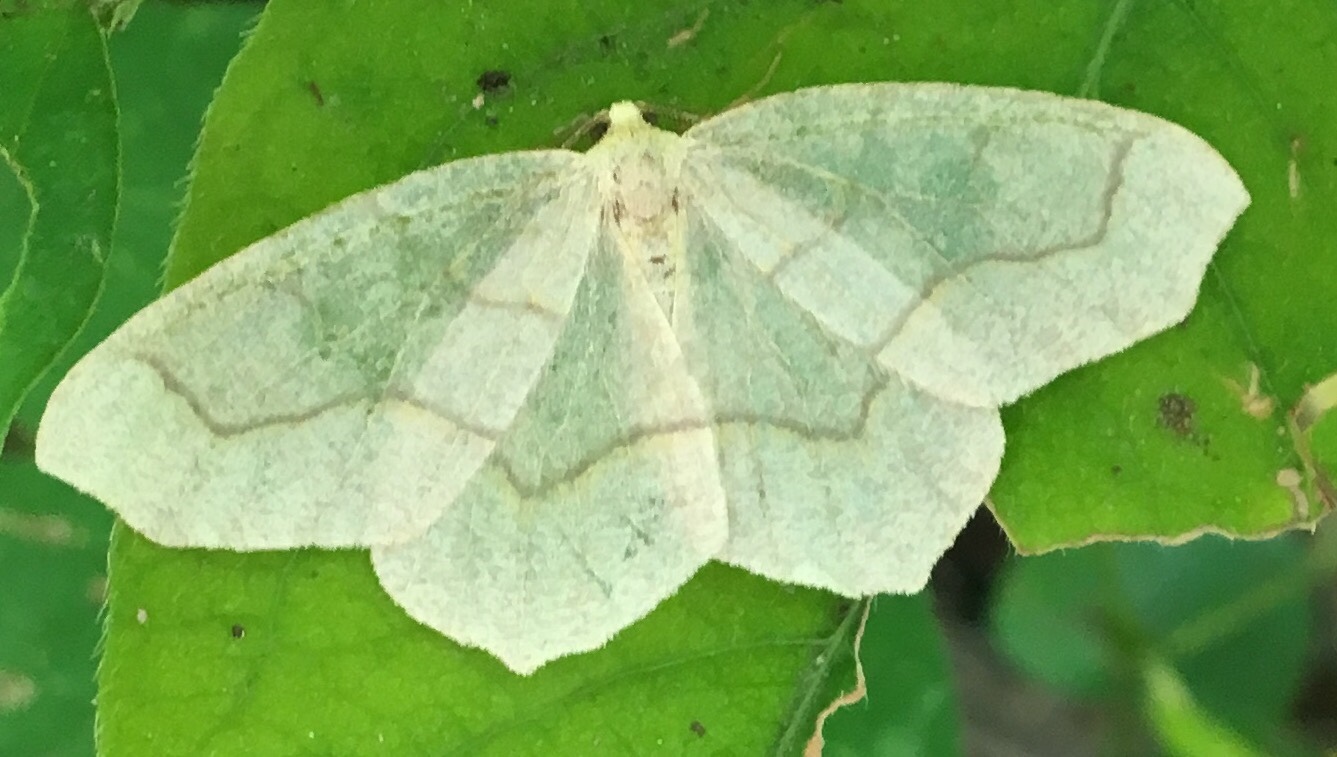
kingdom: Animalia
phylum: Arthropoda
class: Insecta
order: Lepidoptera
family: Geometridae
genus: Lambdina
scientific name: Lambdina fiscellaria
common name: Hemlock looper
